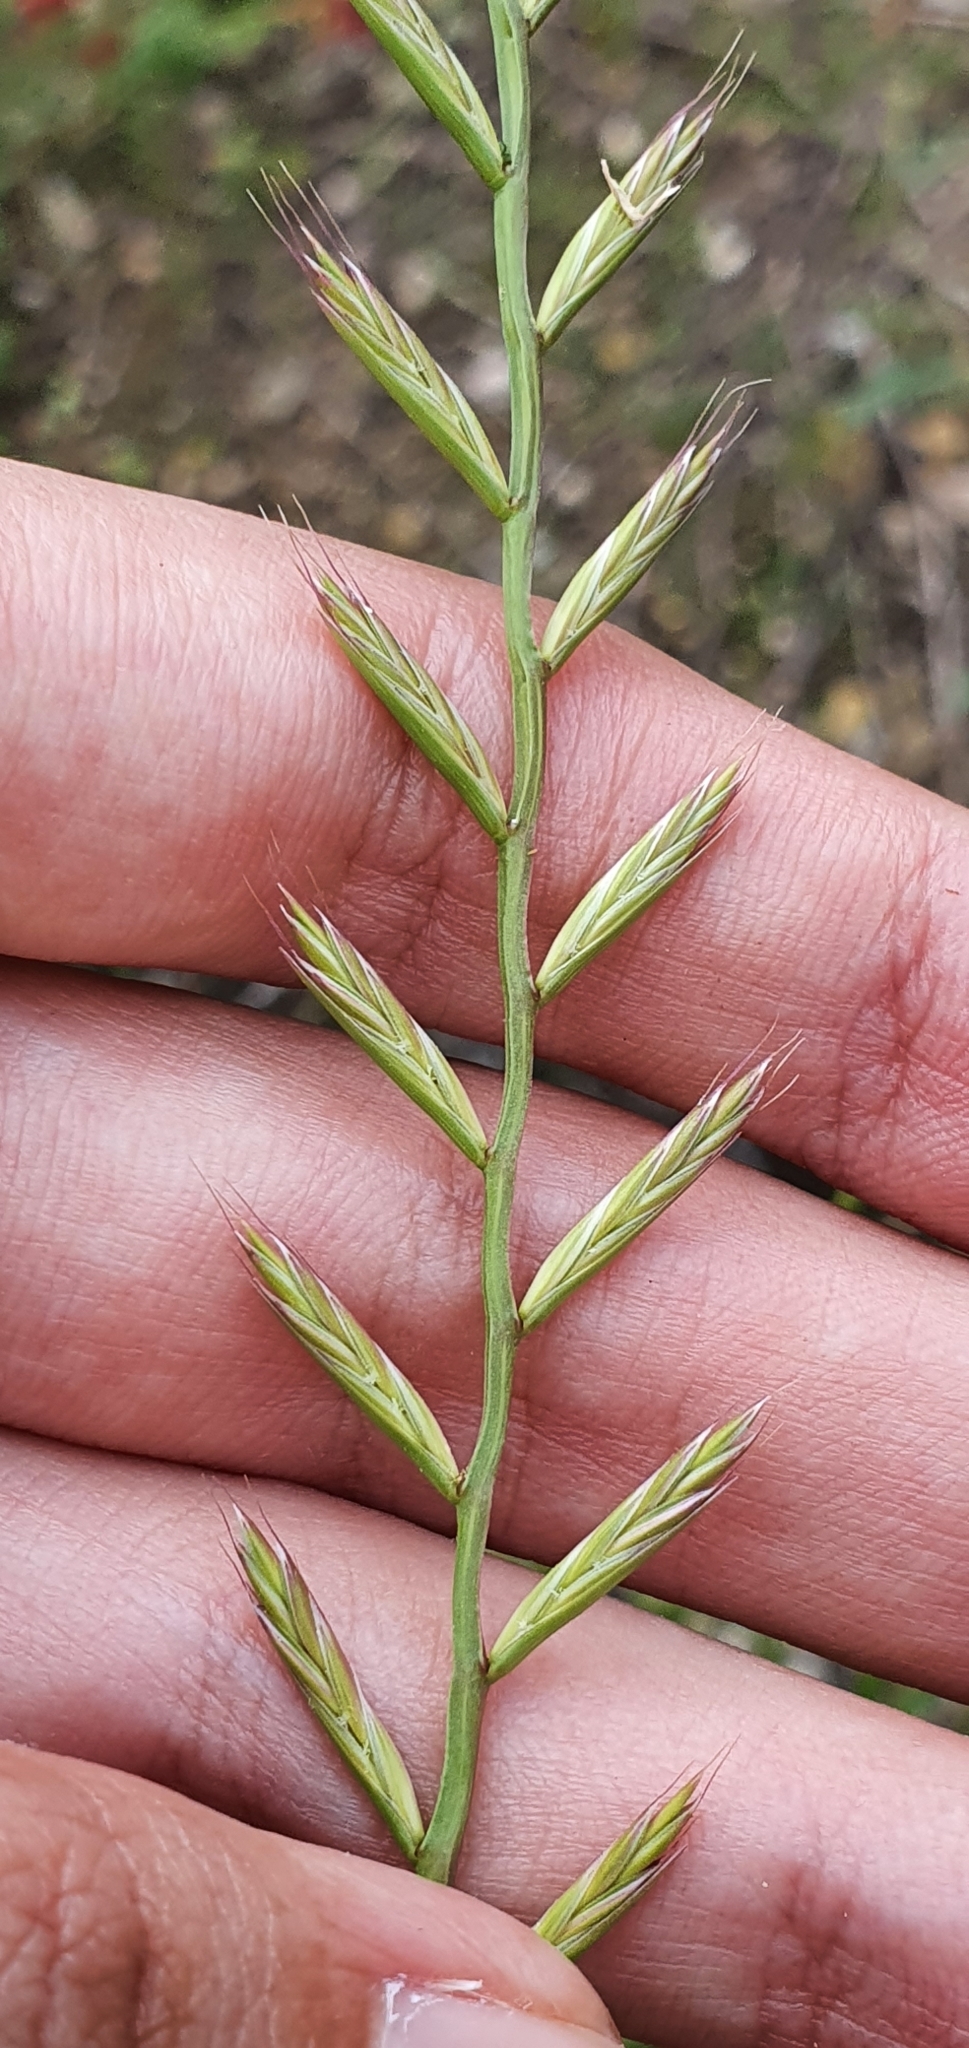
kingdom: Plantae
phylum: Tracheophyta
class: Liliopsida
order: Poales
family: Poaceae
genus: Lolium
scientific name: Lolium rigidum
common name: Wimmera ryegrass
